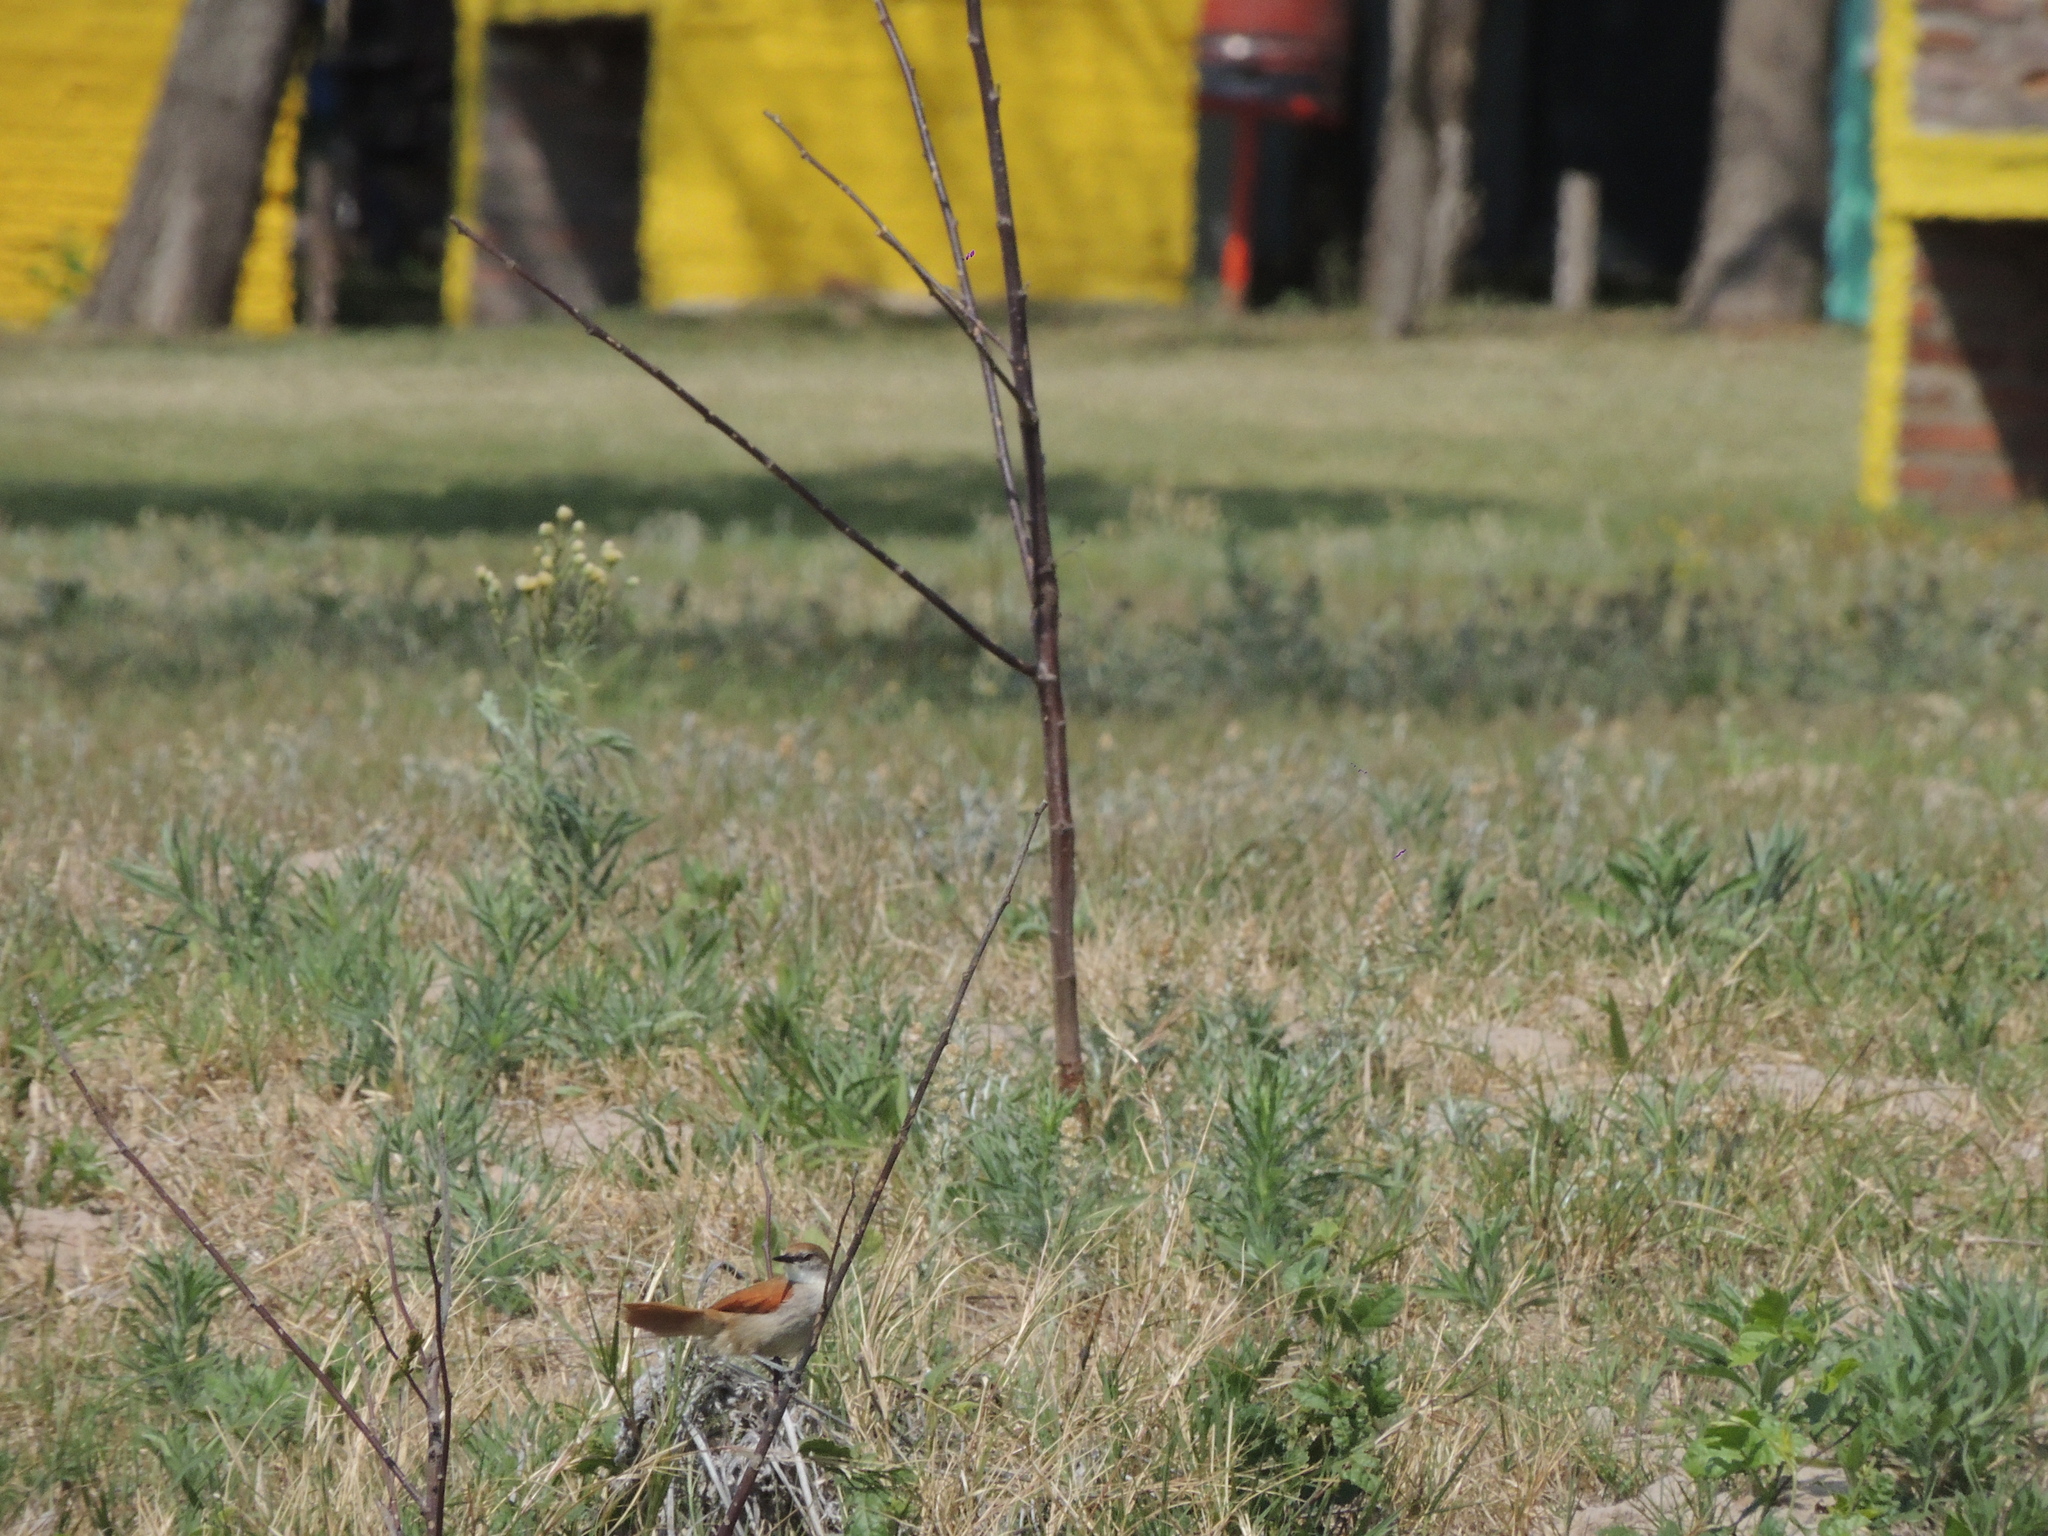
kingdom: Animalia
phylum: Chordata
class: Aves
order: Passeriformes
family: Furnariidae
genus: Certhiaxis
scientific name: Certhiaxis cinnamomeus
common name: Yellow-chinned spinetail
